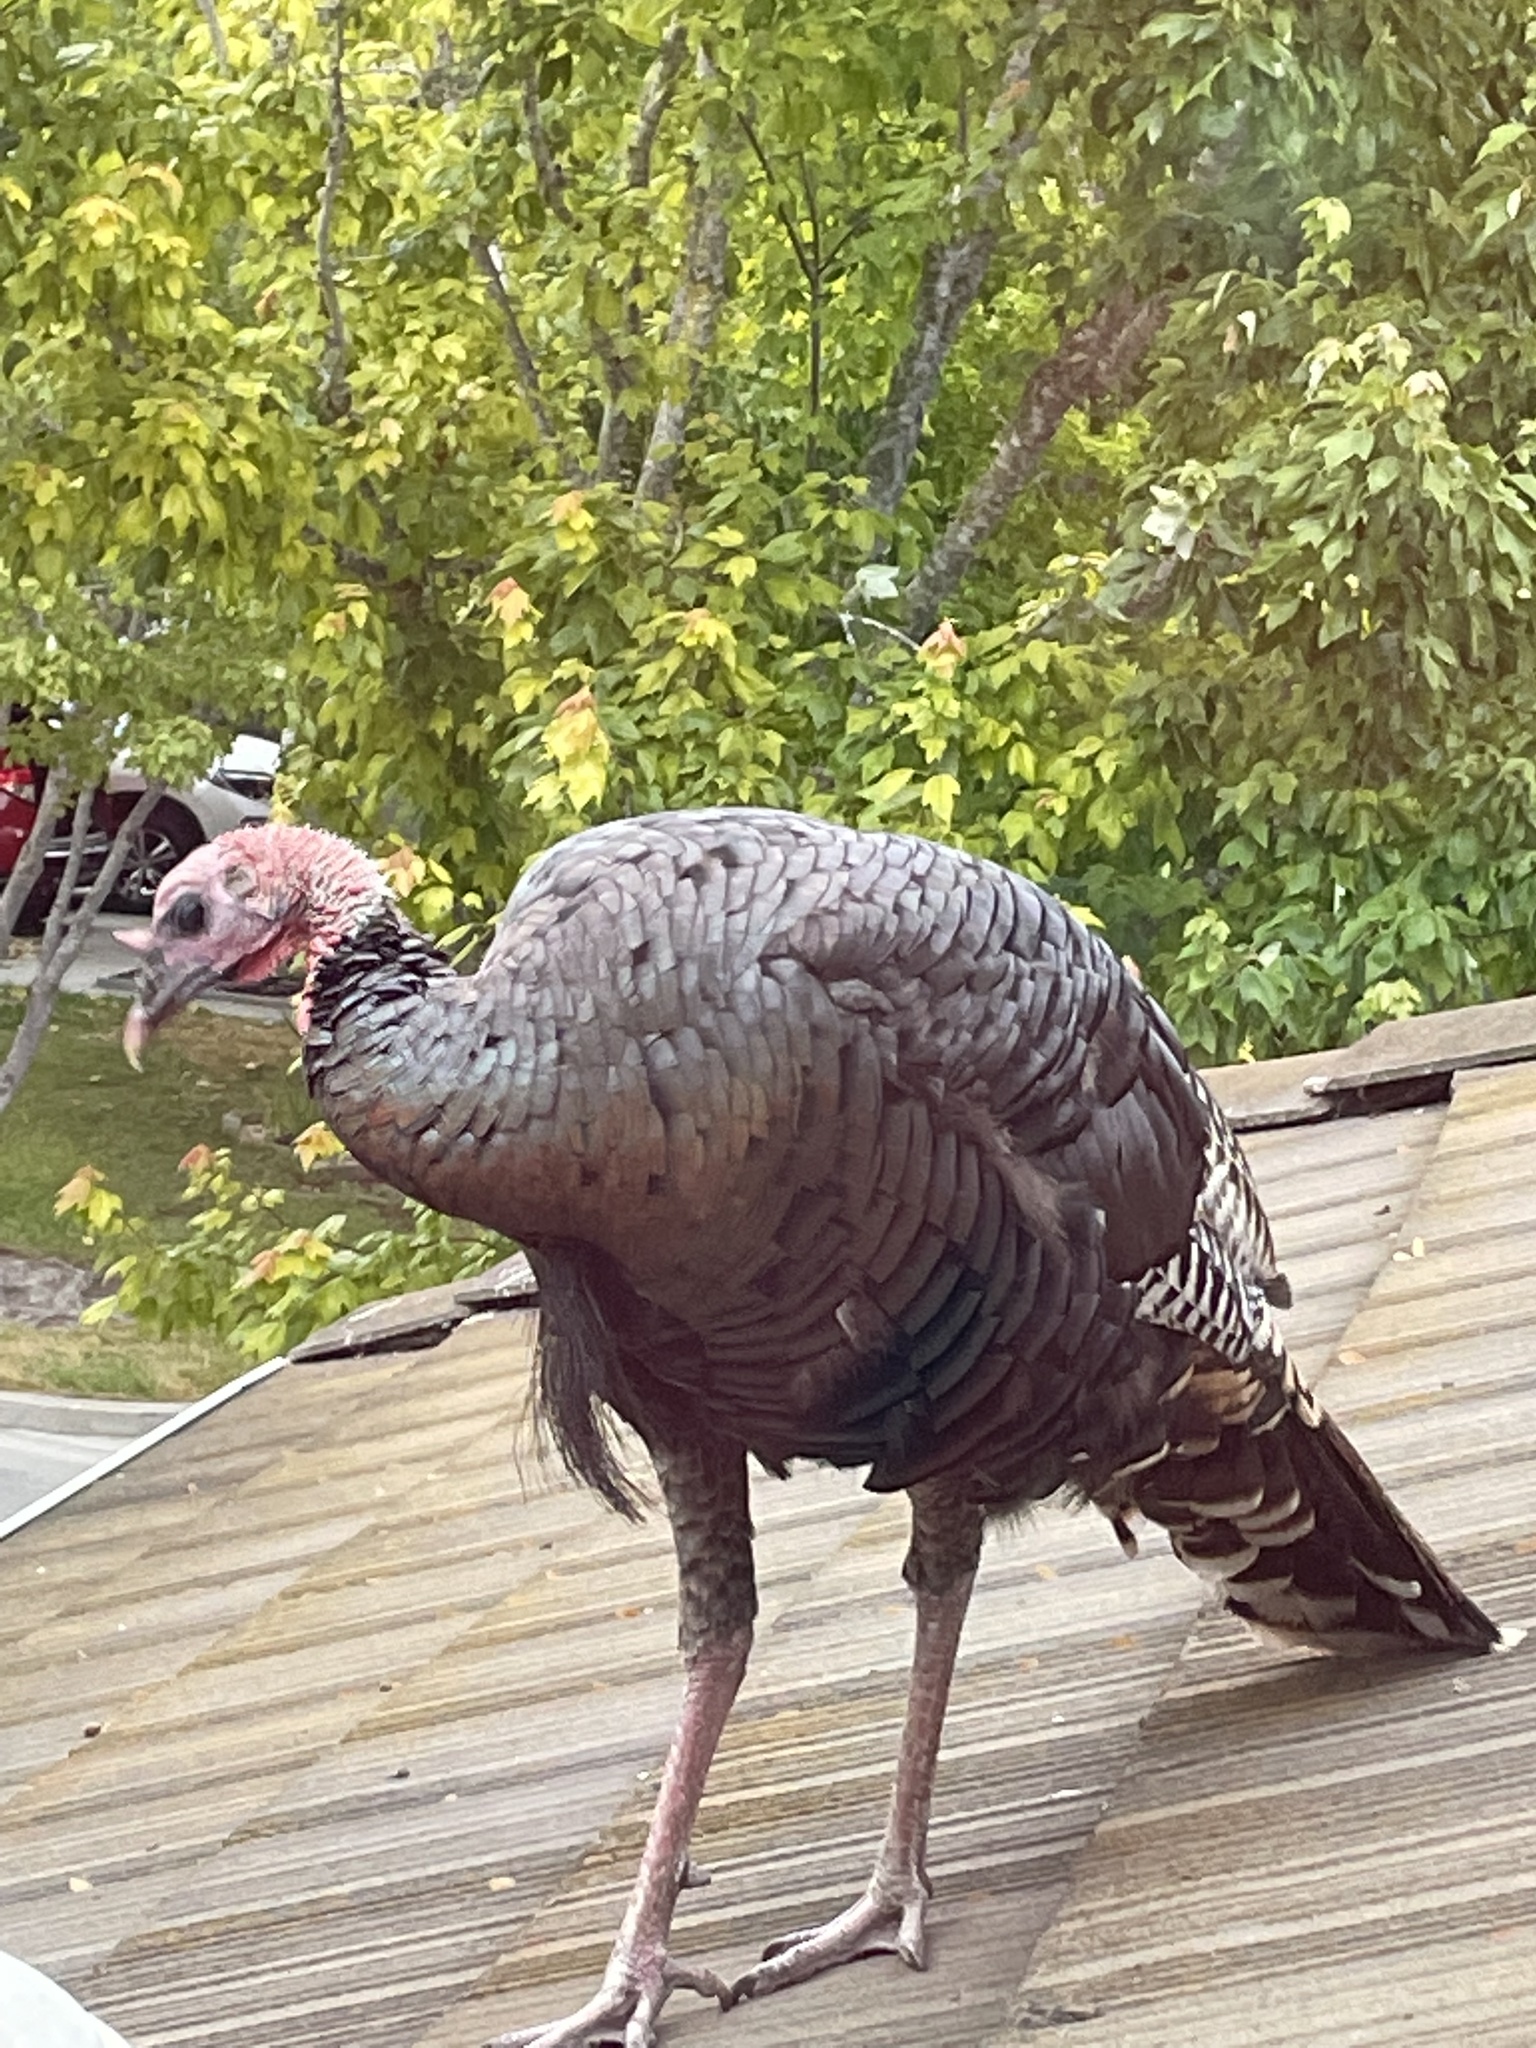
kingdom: Animalia
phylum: Chordata
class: Aves
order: Galliformes
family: Phasianidae
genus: Meleagris
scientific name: Meleagris gallopavo
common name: Wild turkey
